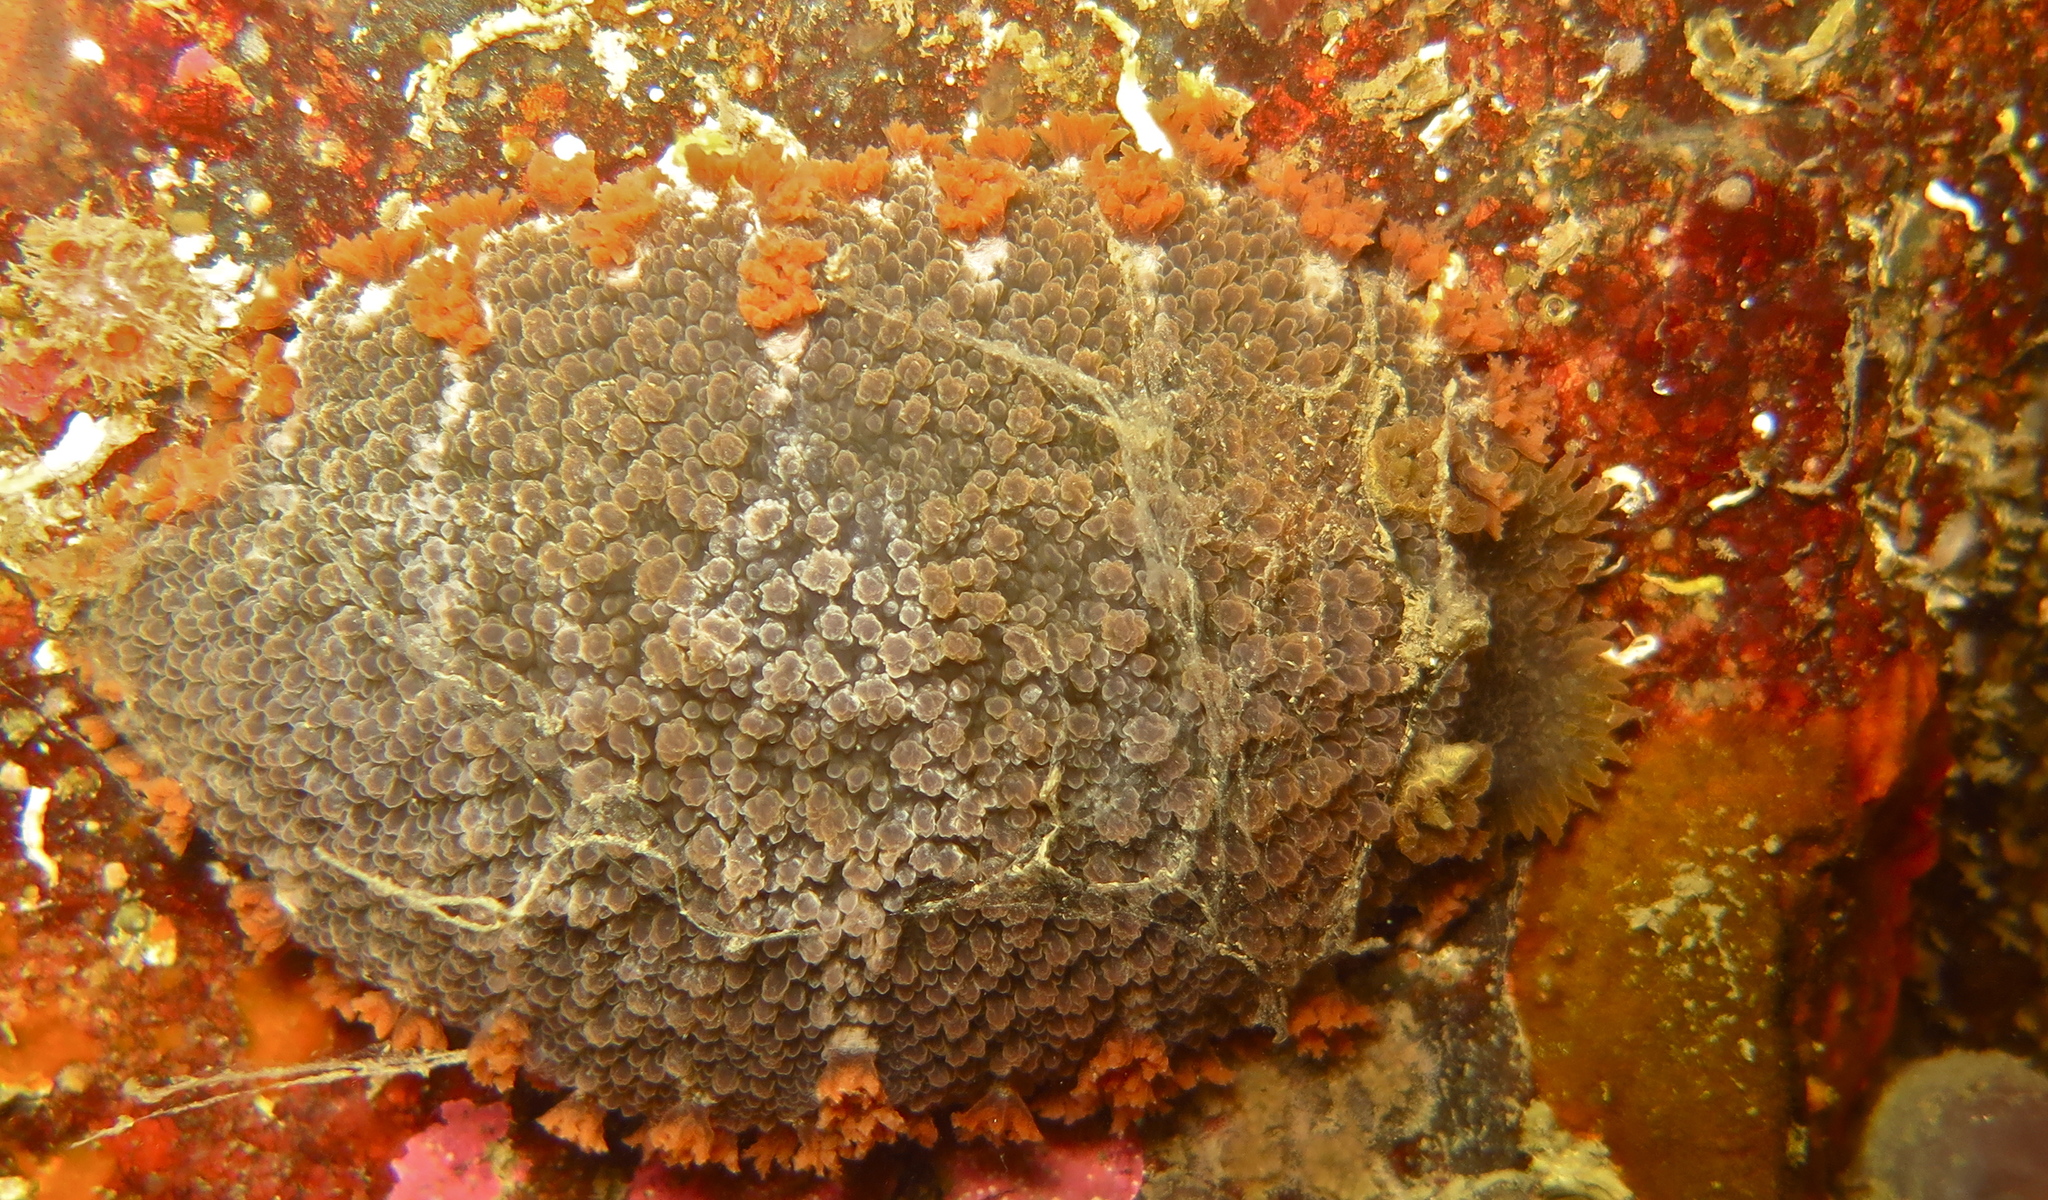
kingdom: Animalia
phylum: Mollusca
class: Gastropoda
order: Nudibranchia
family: Tritoniidae
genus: Tritonia
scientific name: Tritonia hombergii
